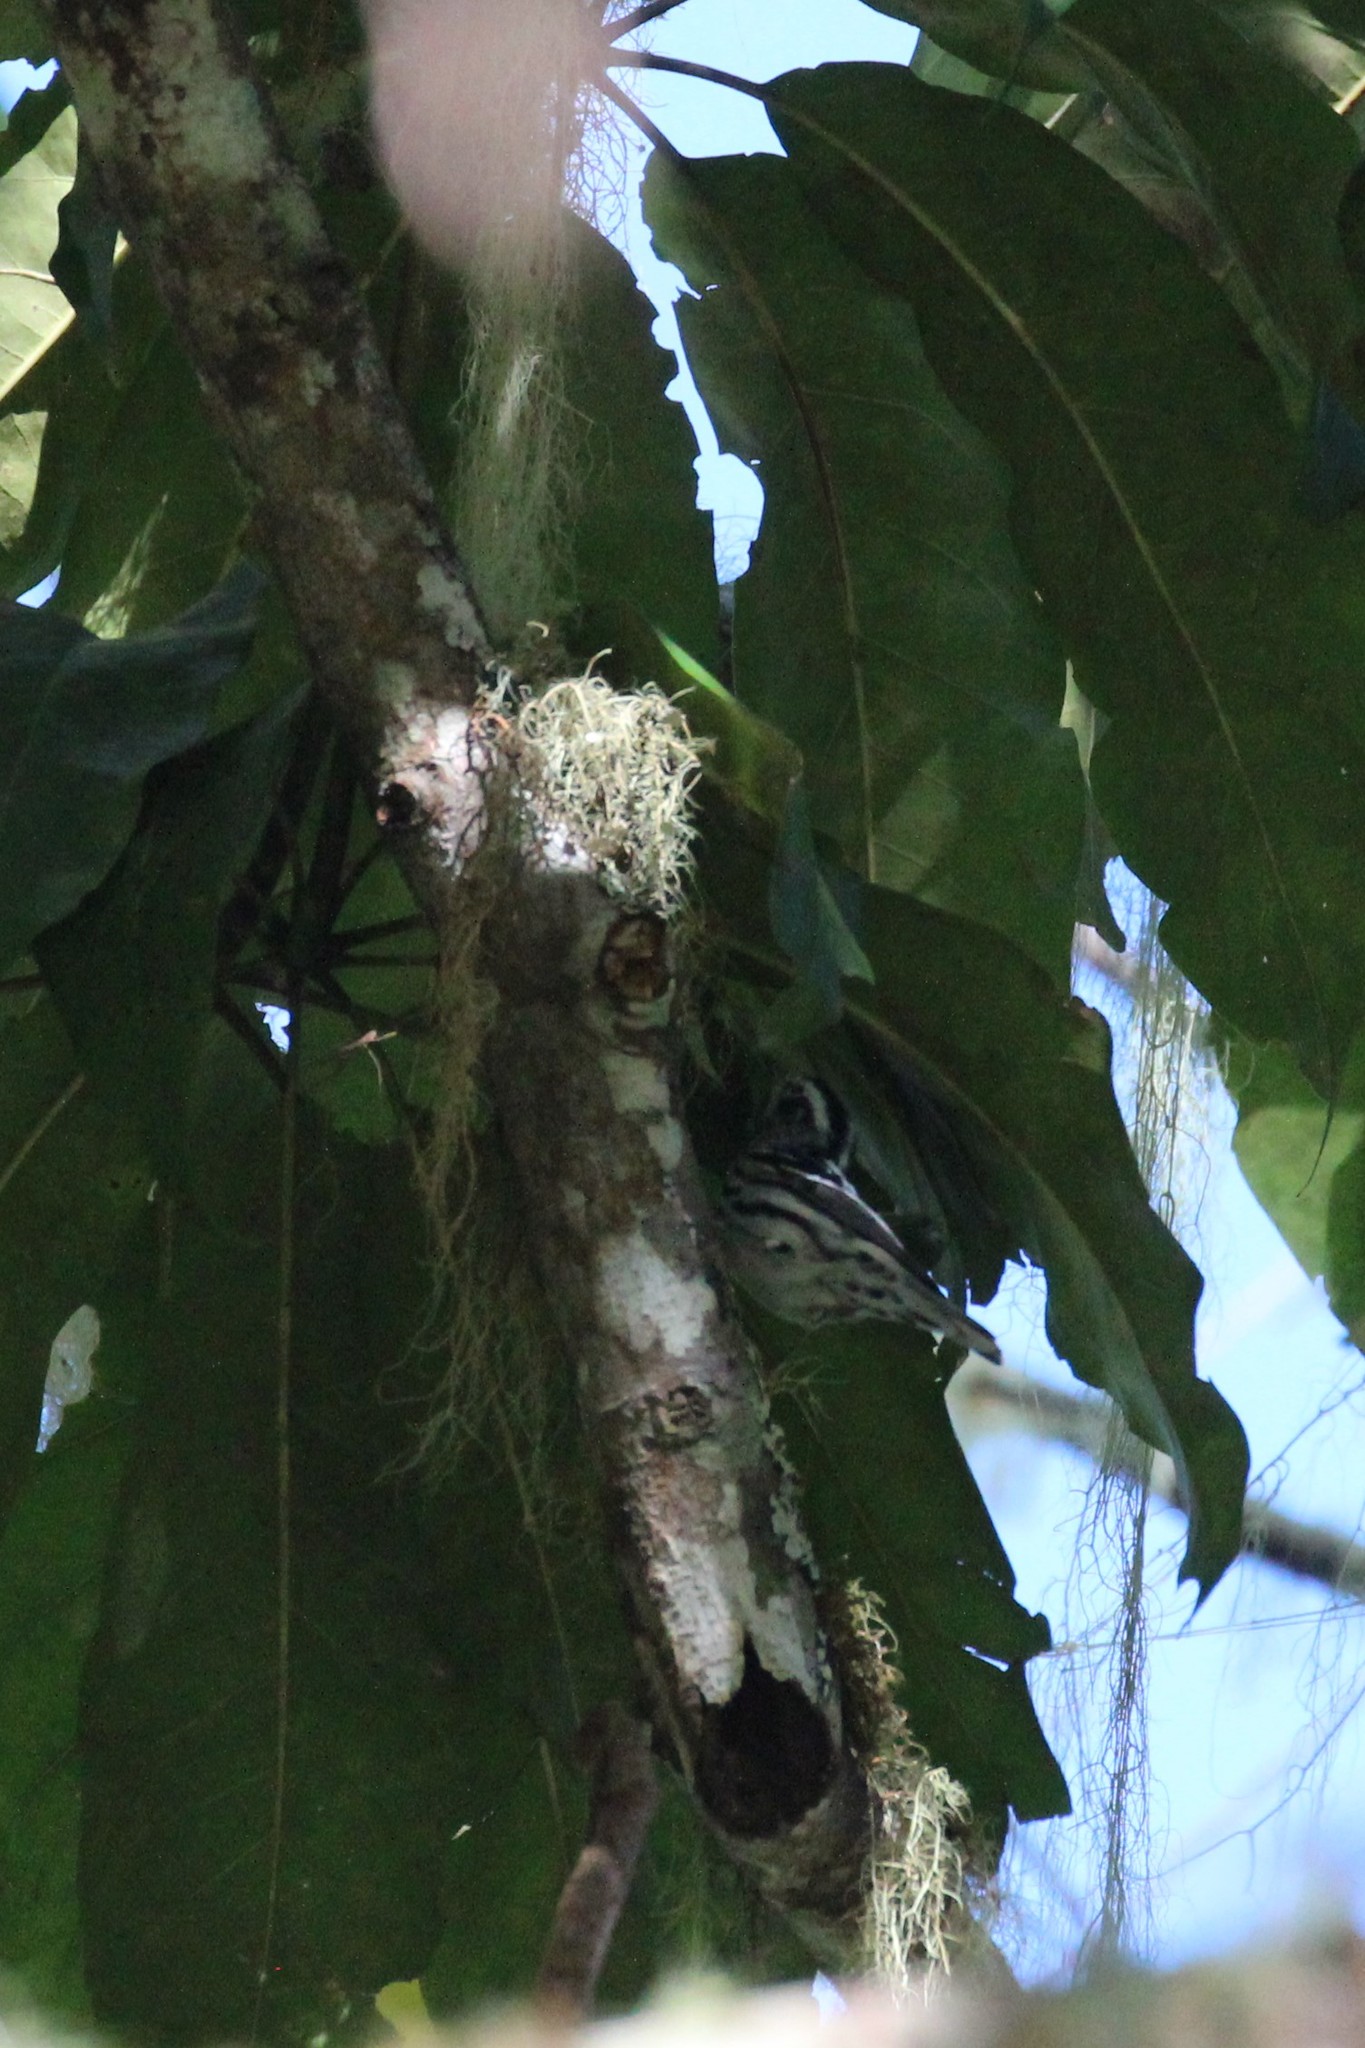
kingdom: Animalia
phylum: Chordata
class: Aves
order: Passeriformes
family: Parulidae
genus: Mniotilta
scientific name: Mniotilta varia
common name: Black-and-white warbler
